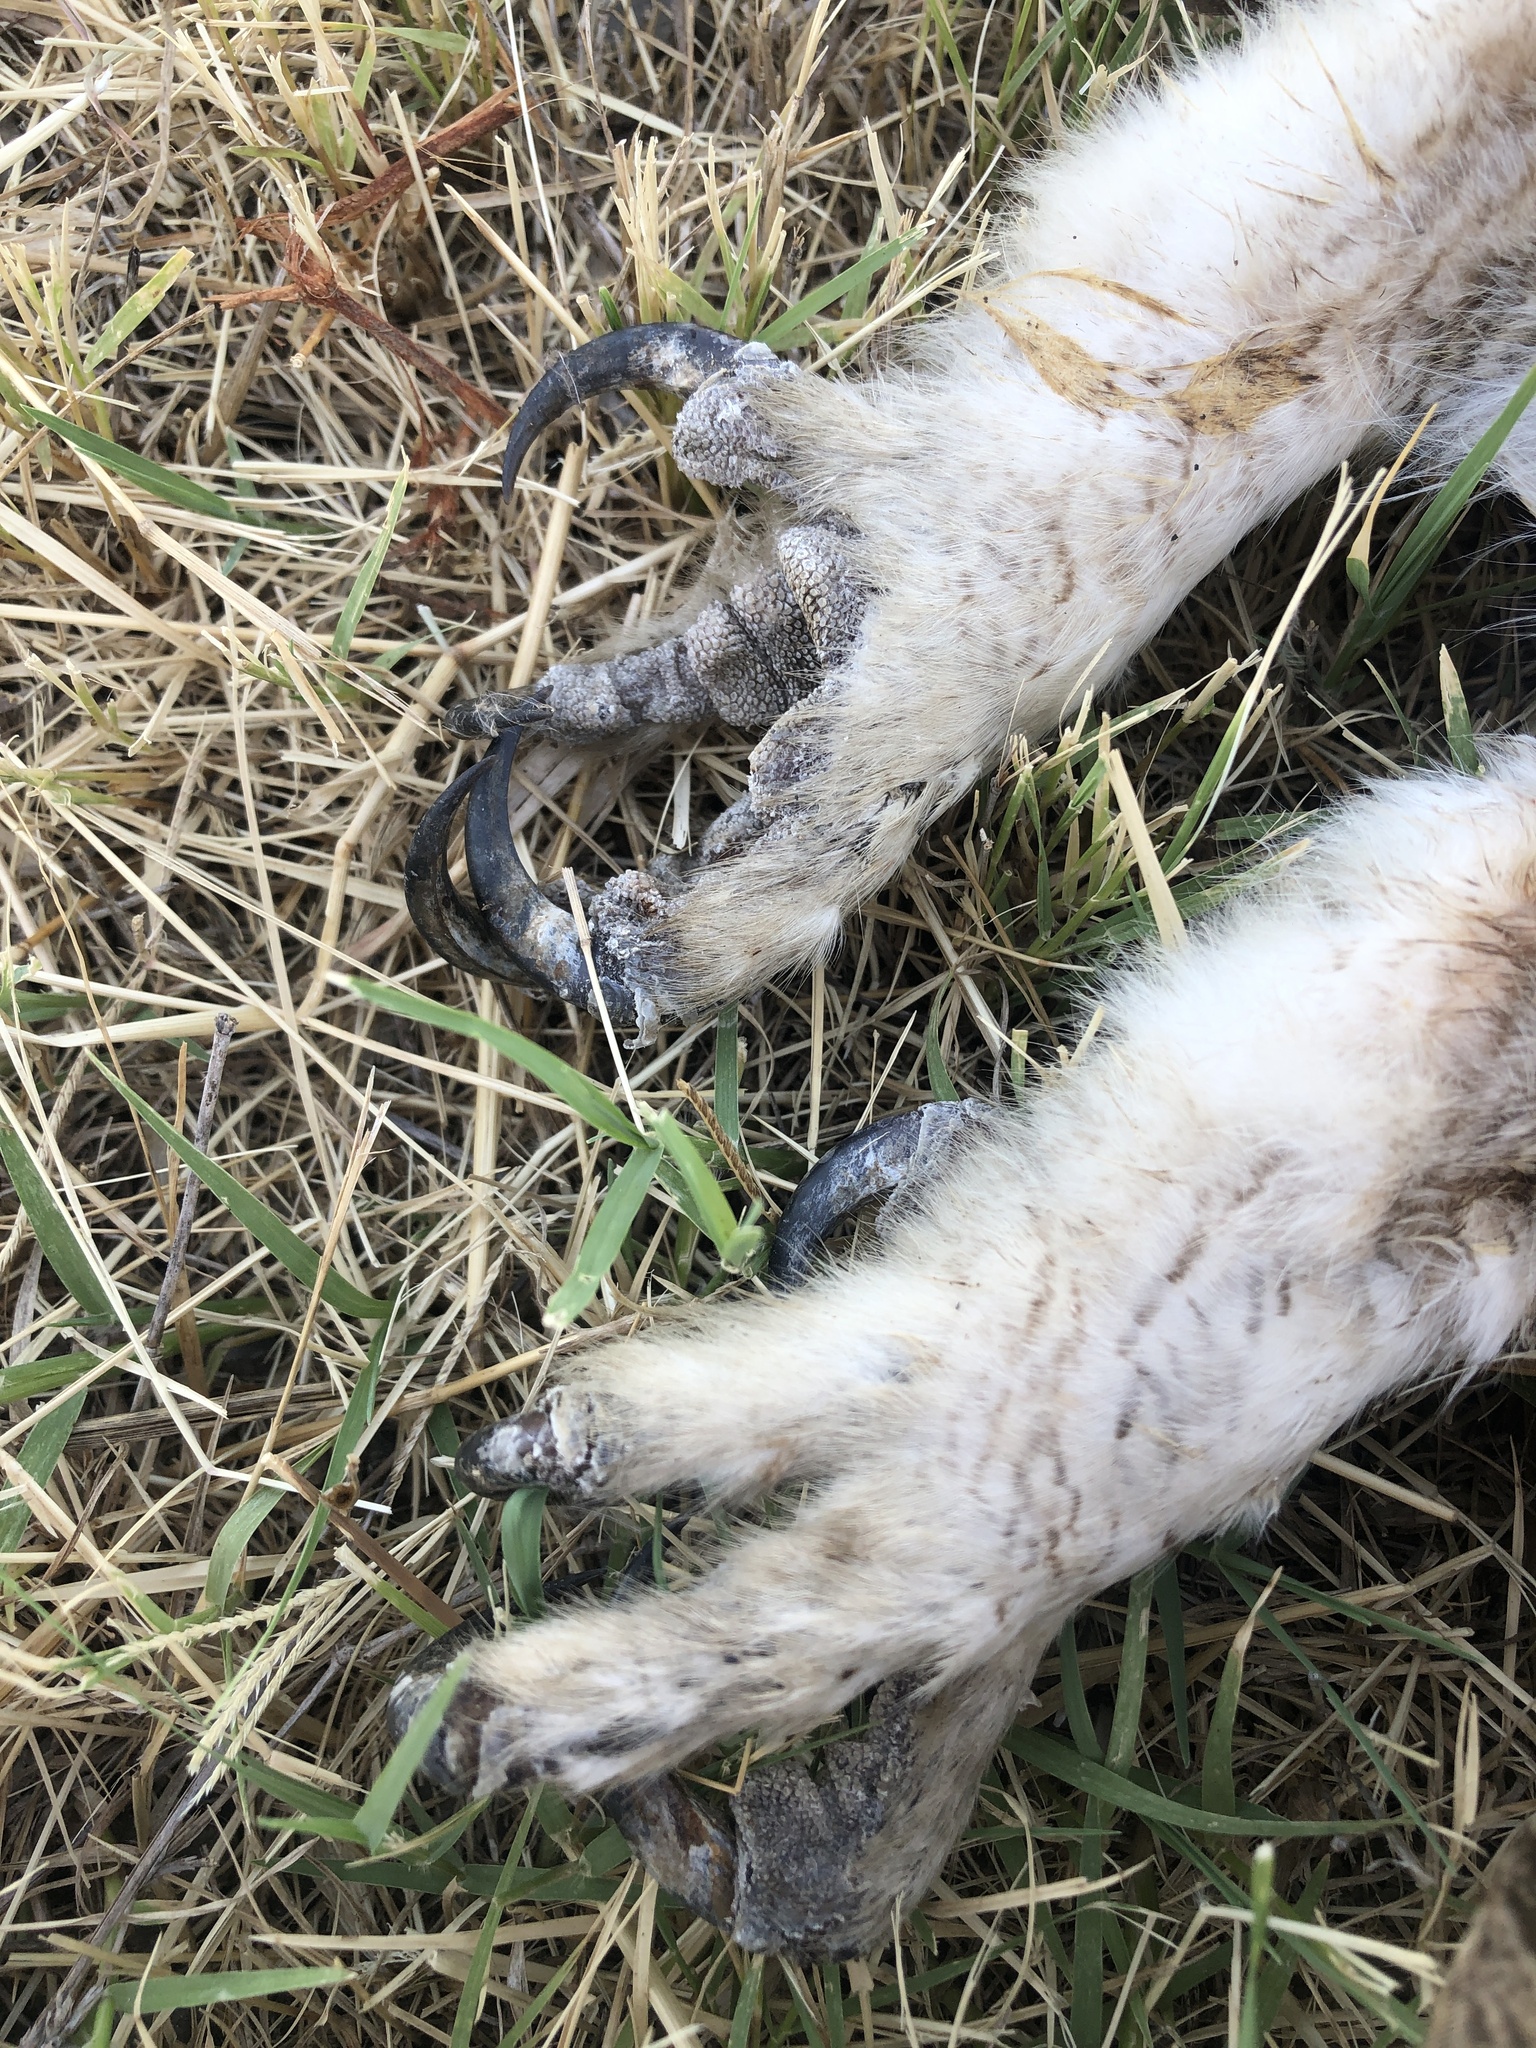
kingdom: Animalia
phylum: Chordata
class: Aves
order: Strigiformes
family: Strigidae
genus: Bubo
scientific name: Bubo virginianus
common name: Great horned owl
